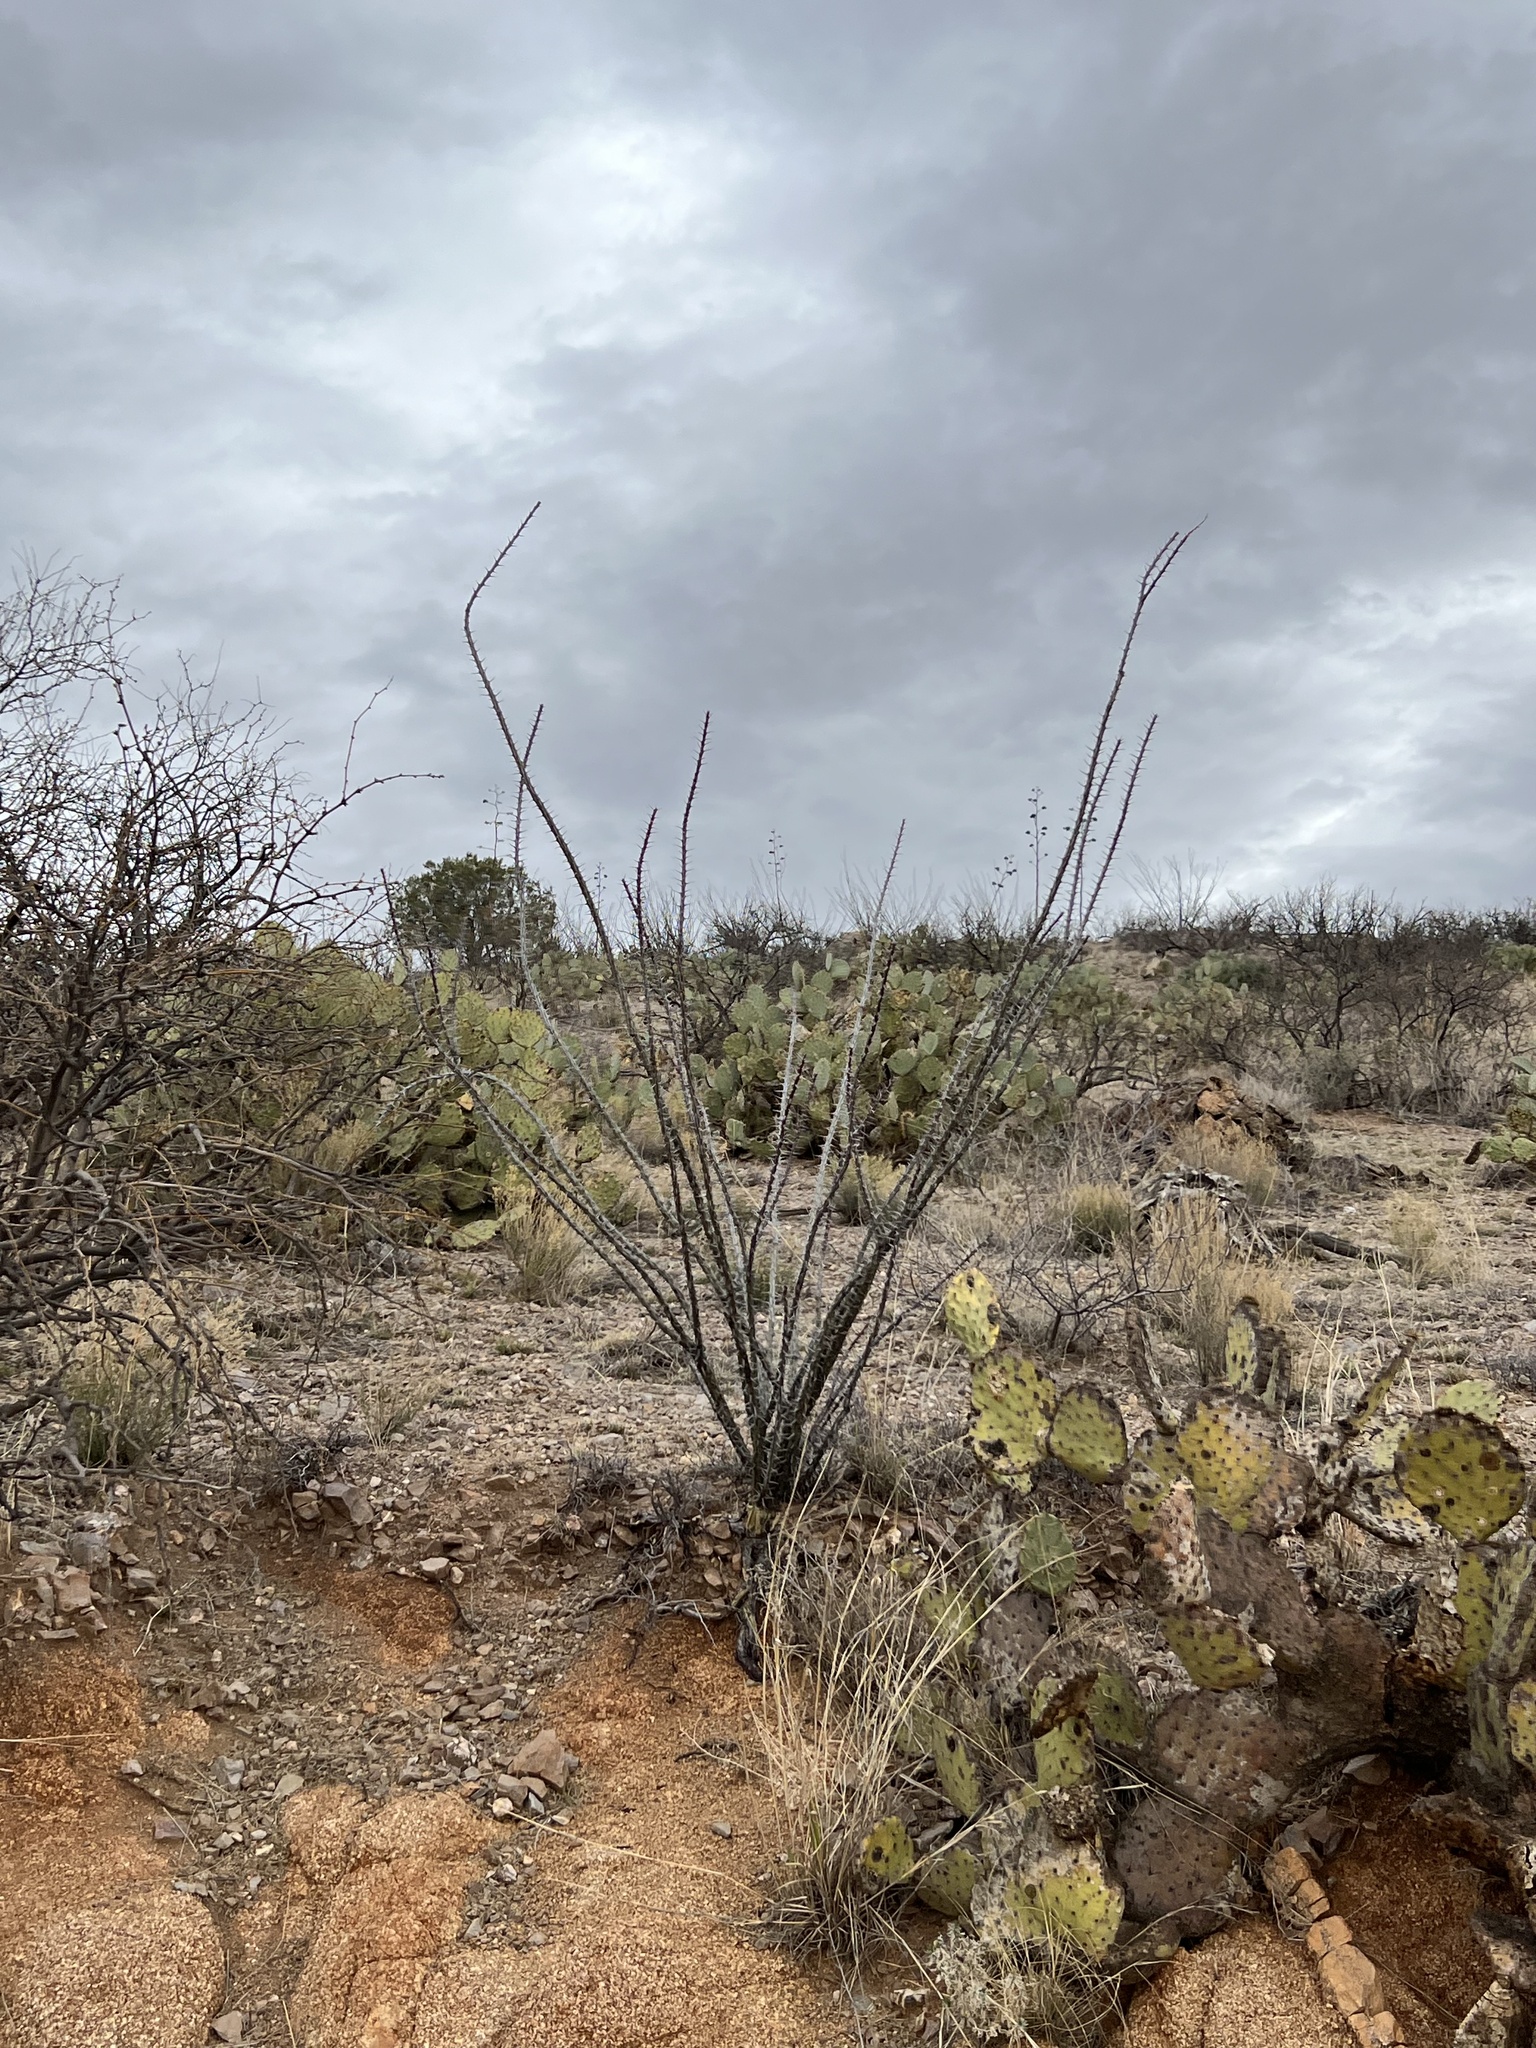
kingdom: Plantae
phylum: Tracheophyta
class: Magnoliopsida
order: Ericales
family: Fouquieriaceae
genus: Fouquieria
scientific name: Fouquieria splendens
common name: Vine-cactus
